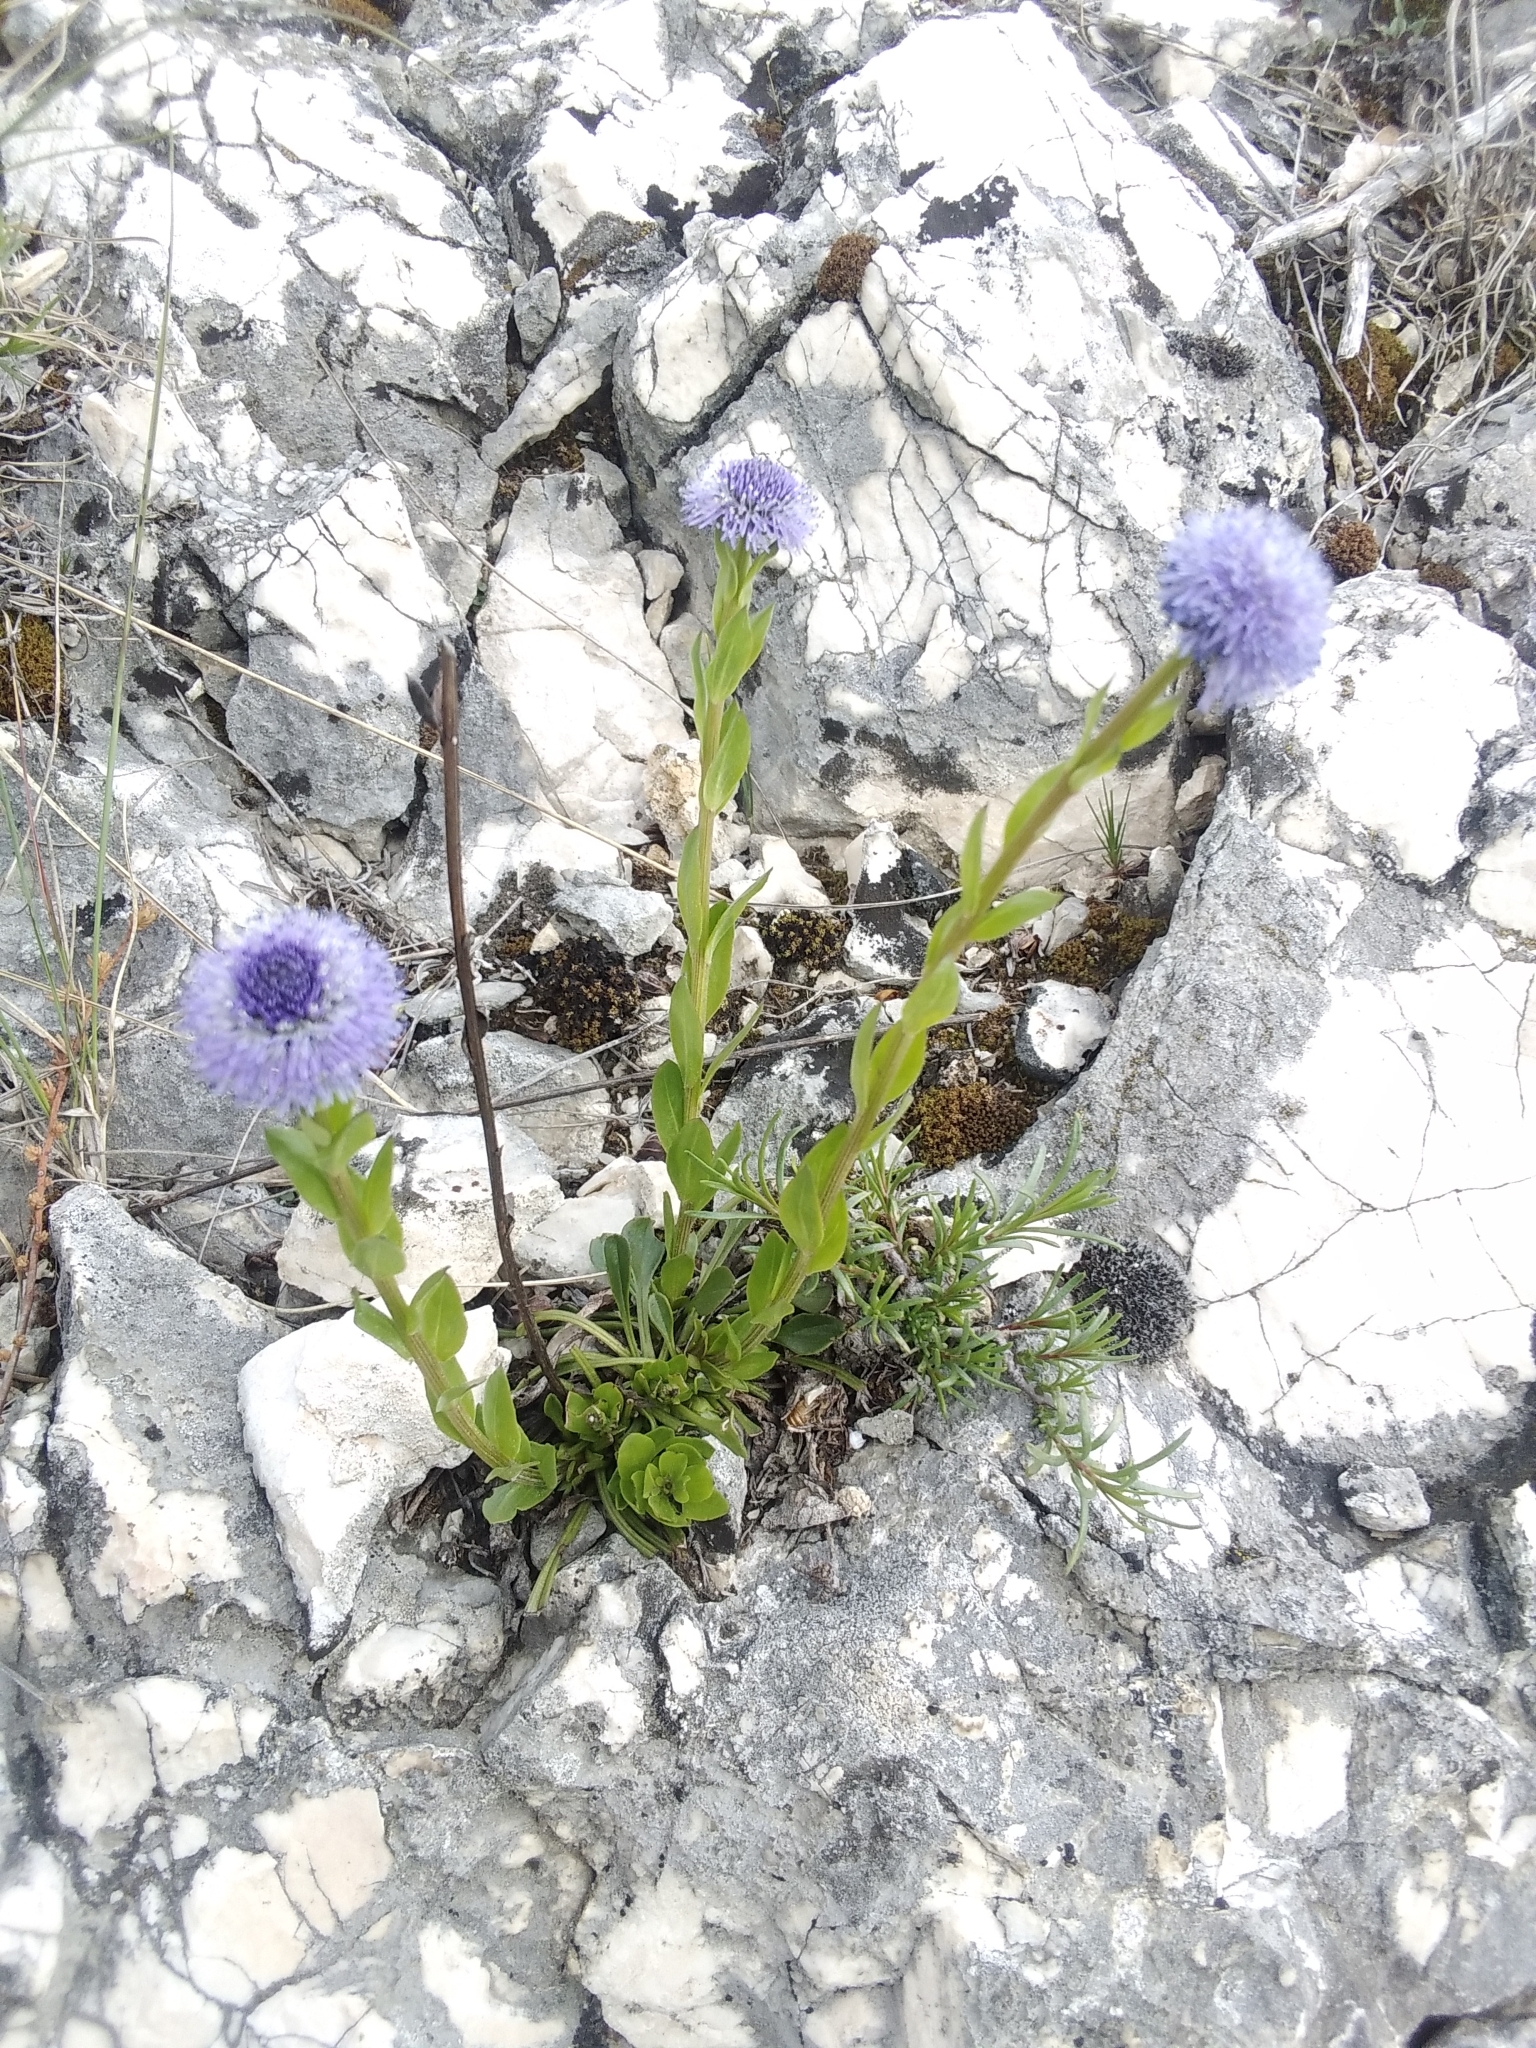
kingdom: Plantae
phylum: Tracheophyta
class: Magnoliopsida
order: Lamiales
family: Plantaginaceae
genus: Globularia
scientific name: Globularia bisnagarica
